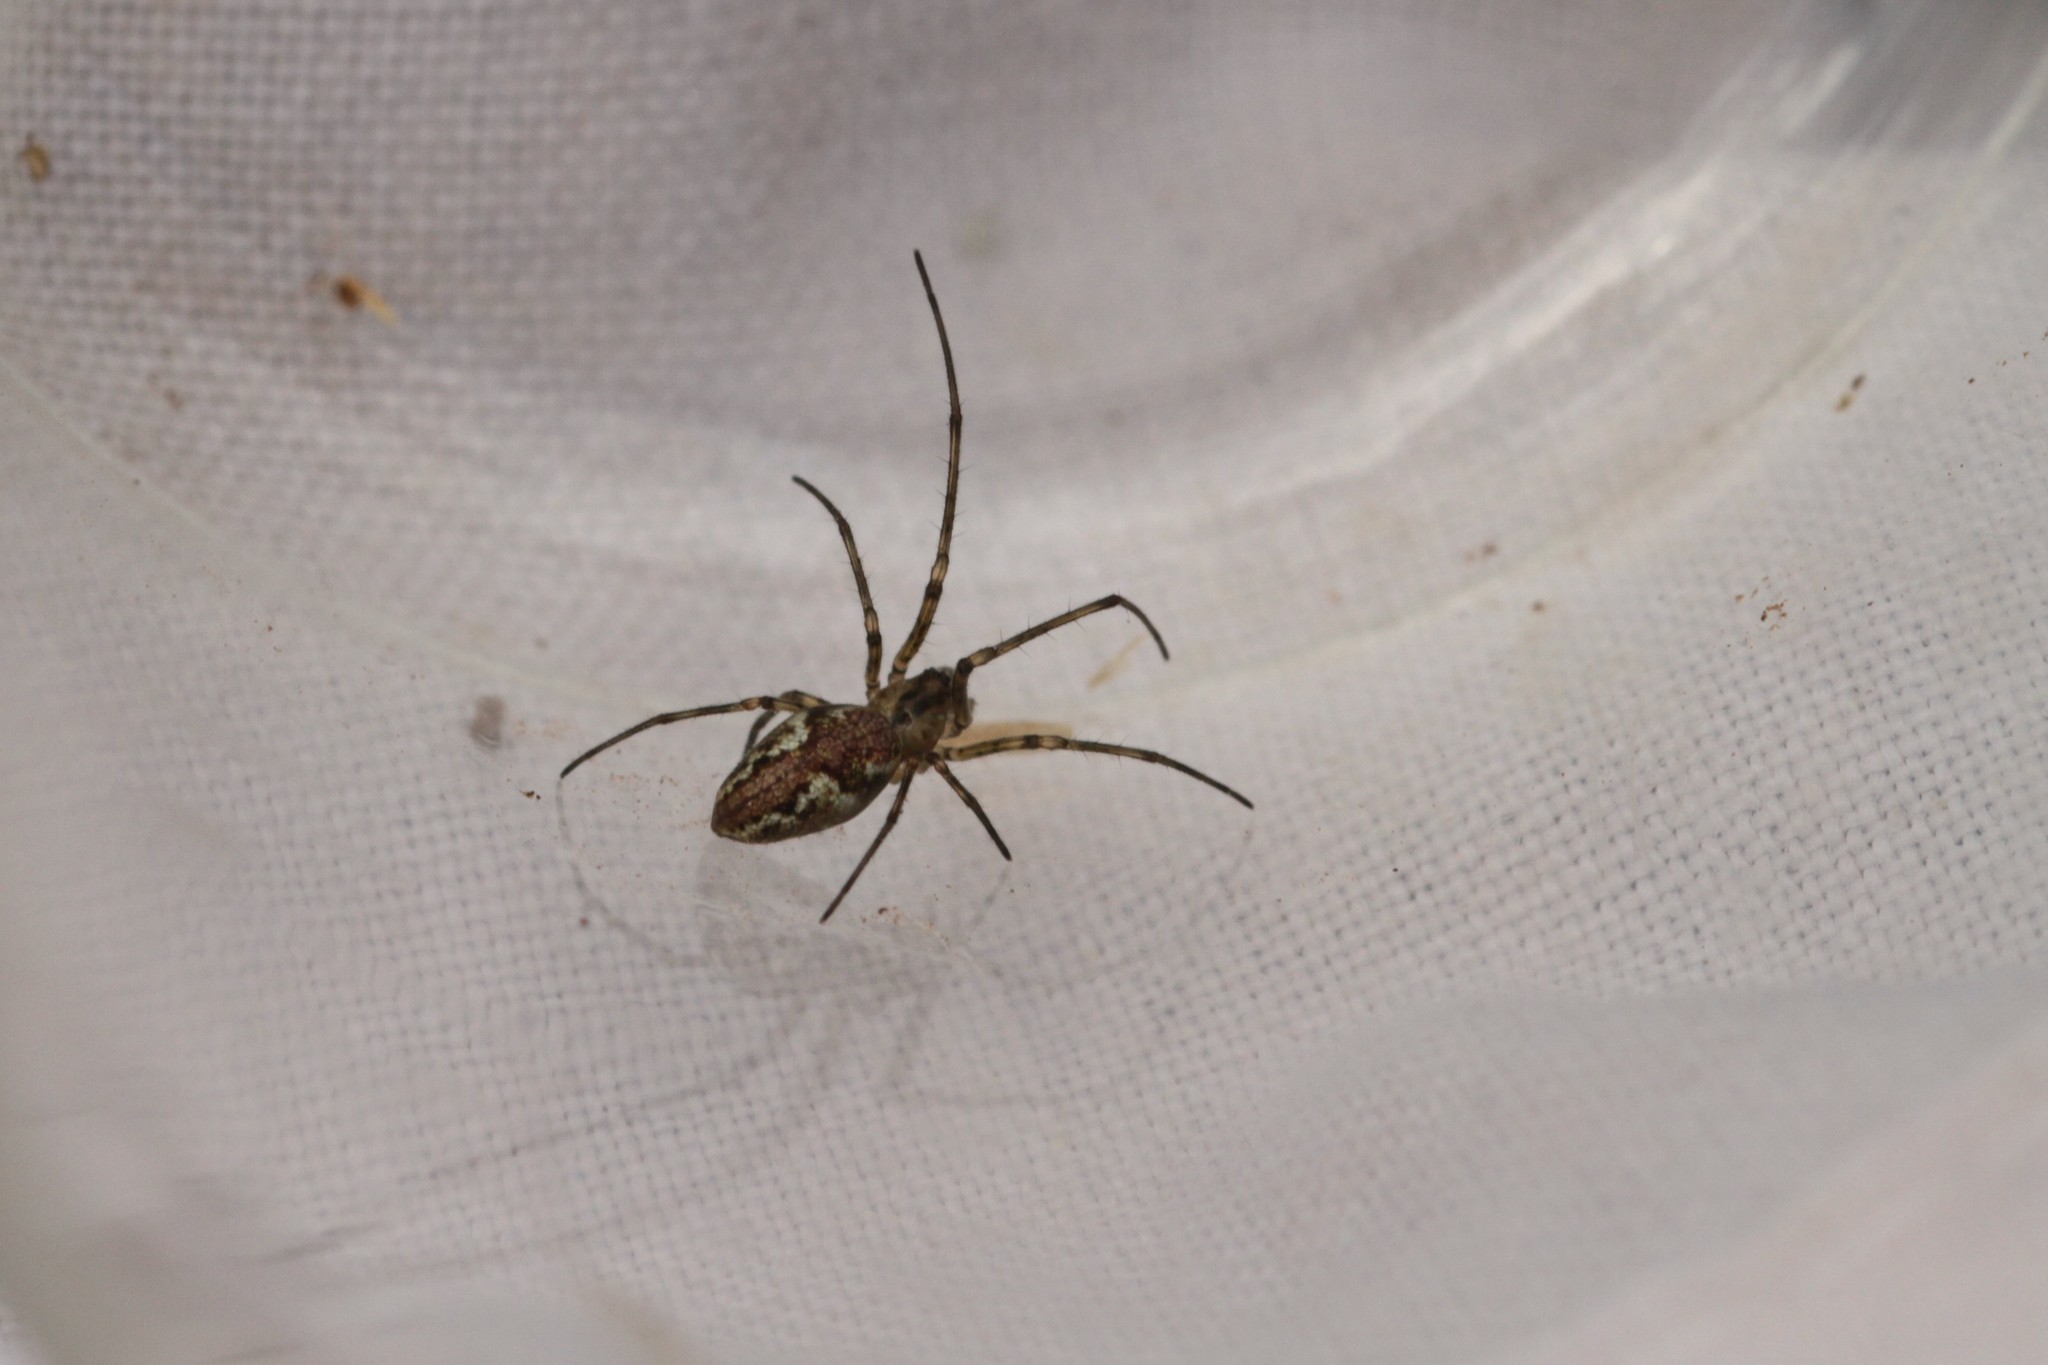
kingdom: Animalia
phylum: Arthropoda
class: Arachnida
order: Araneae
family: Tetragnathidae
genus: Tetragnatha
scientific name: Tetragnatha obtusa
